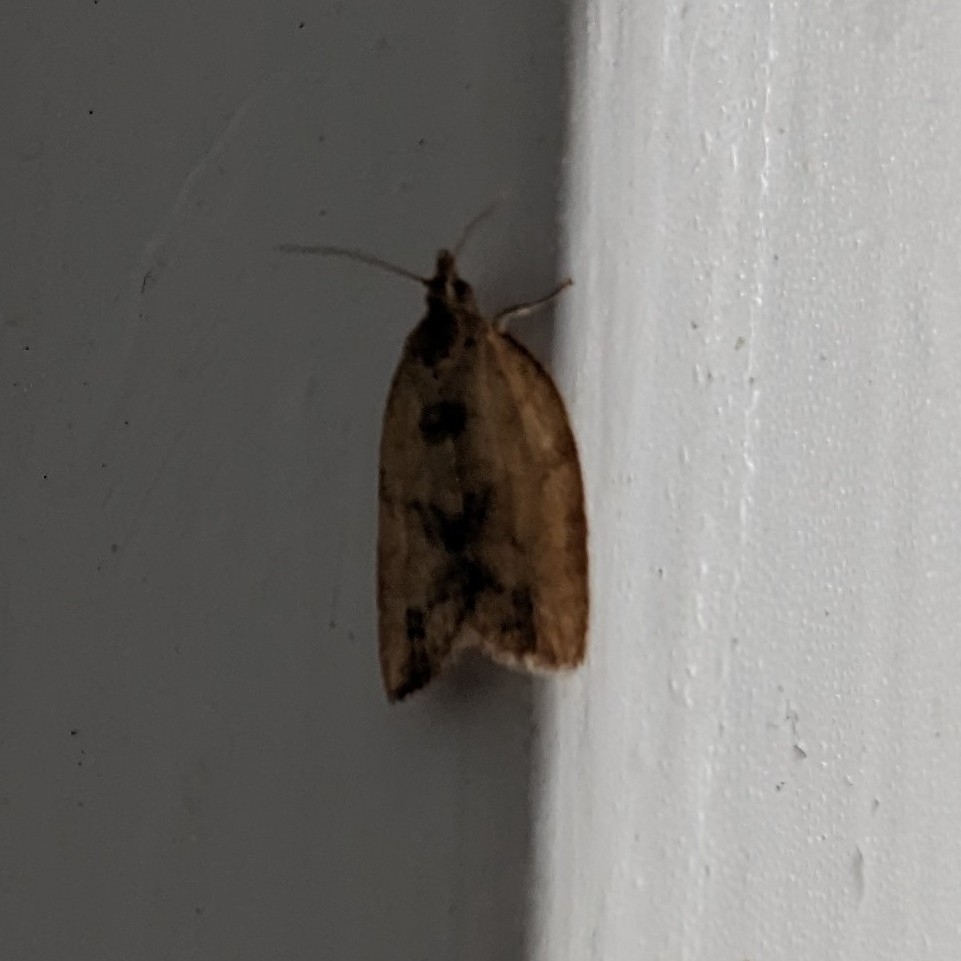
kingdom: Animalia
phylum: Arthropoda
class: Insecta
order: Lepidoptera
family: Tortricidae
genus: Epiphyas
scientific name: Epiphyas postvittana
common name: Light brown apple moth
